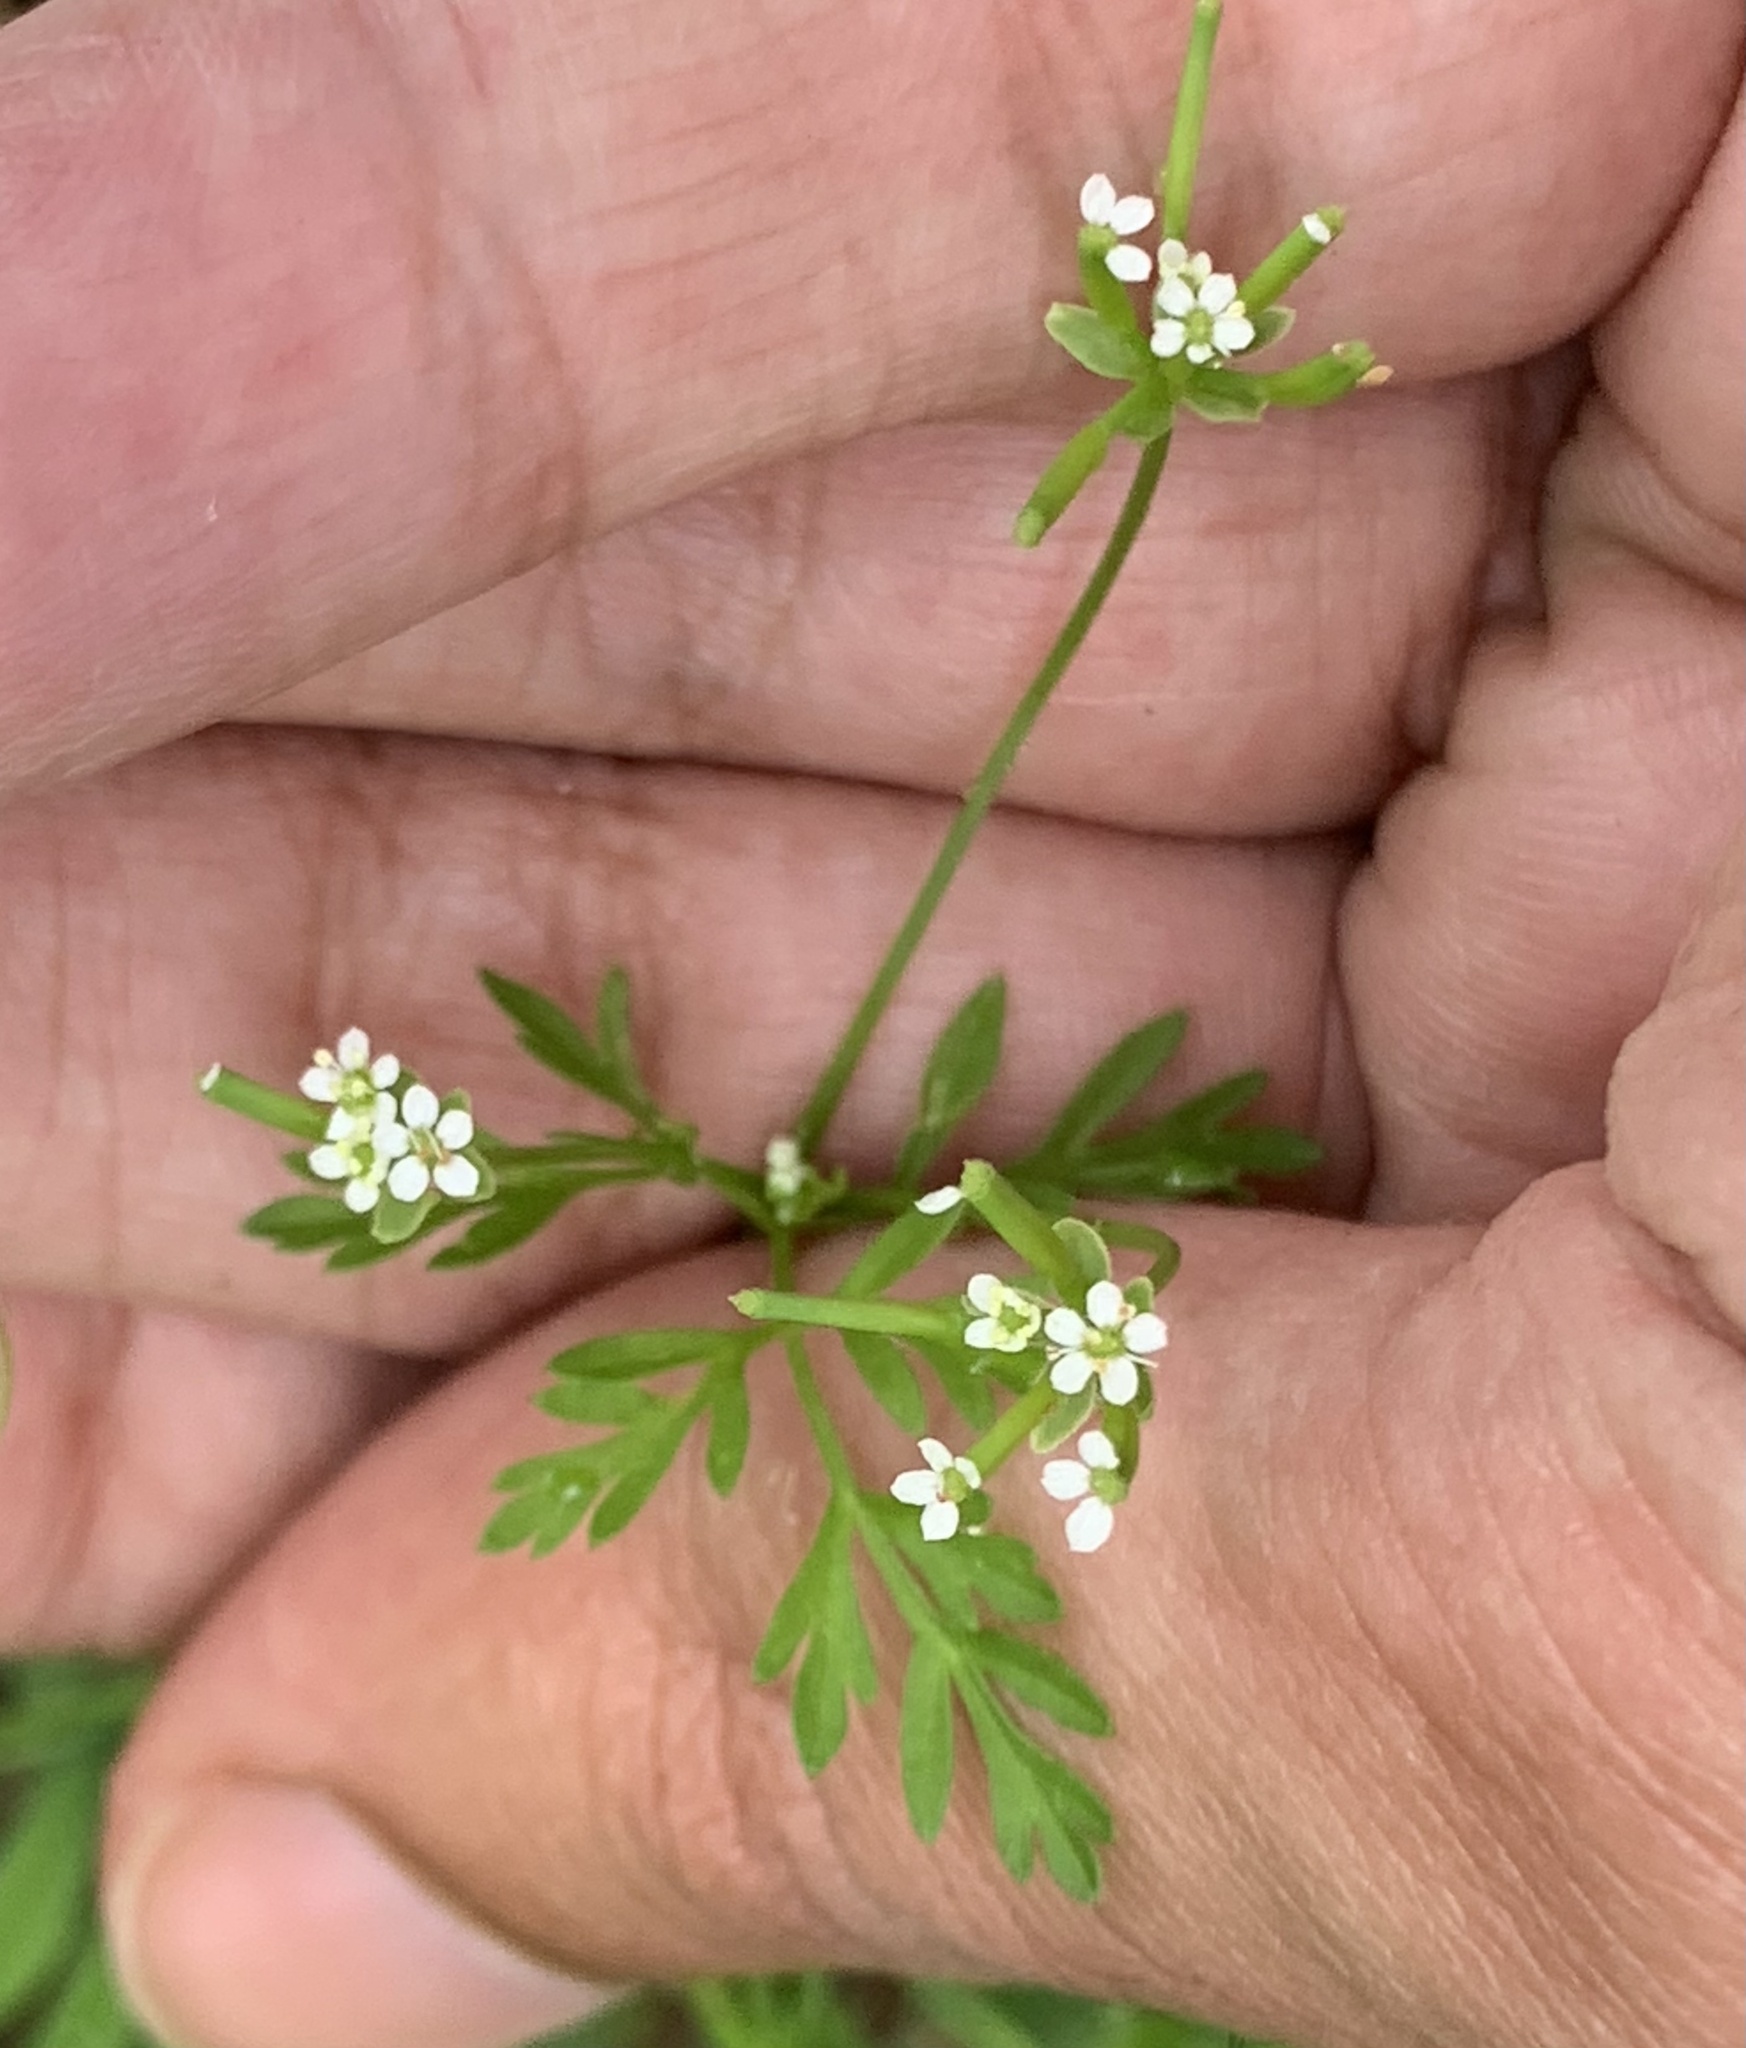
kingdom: Plantae
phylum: Tracheophyta
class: Magnoliopsida
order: Apiales
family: Apiaceae
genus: Chaerophyllum
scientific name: Chaerophyllum tainturieri
